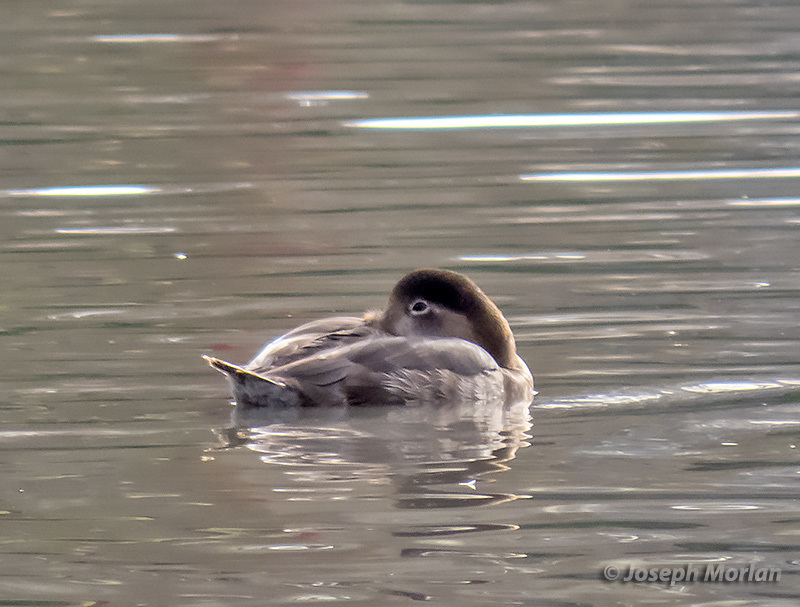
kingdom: Animalia
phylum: Chordata
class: Aves
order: Anseriformes
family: Anatidae
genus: Aythya
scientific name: Aythya americana
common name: Redhead
